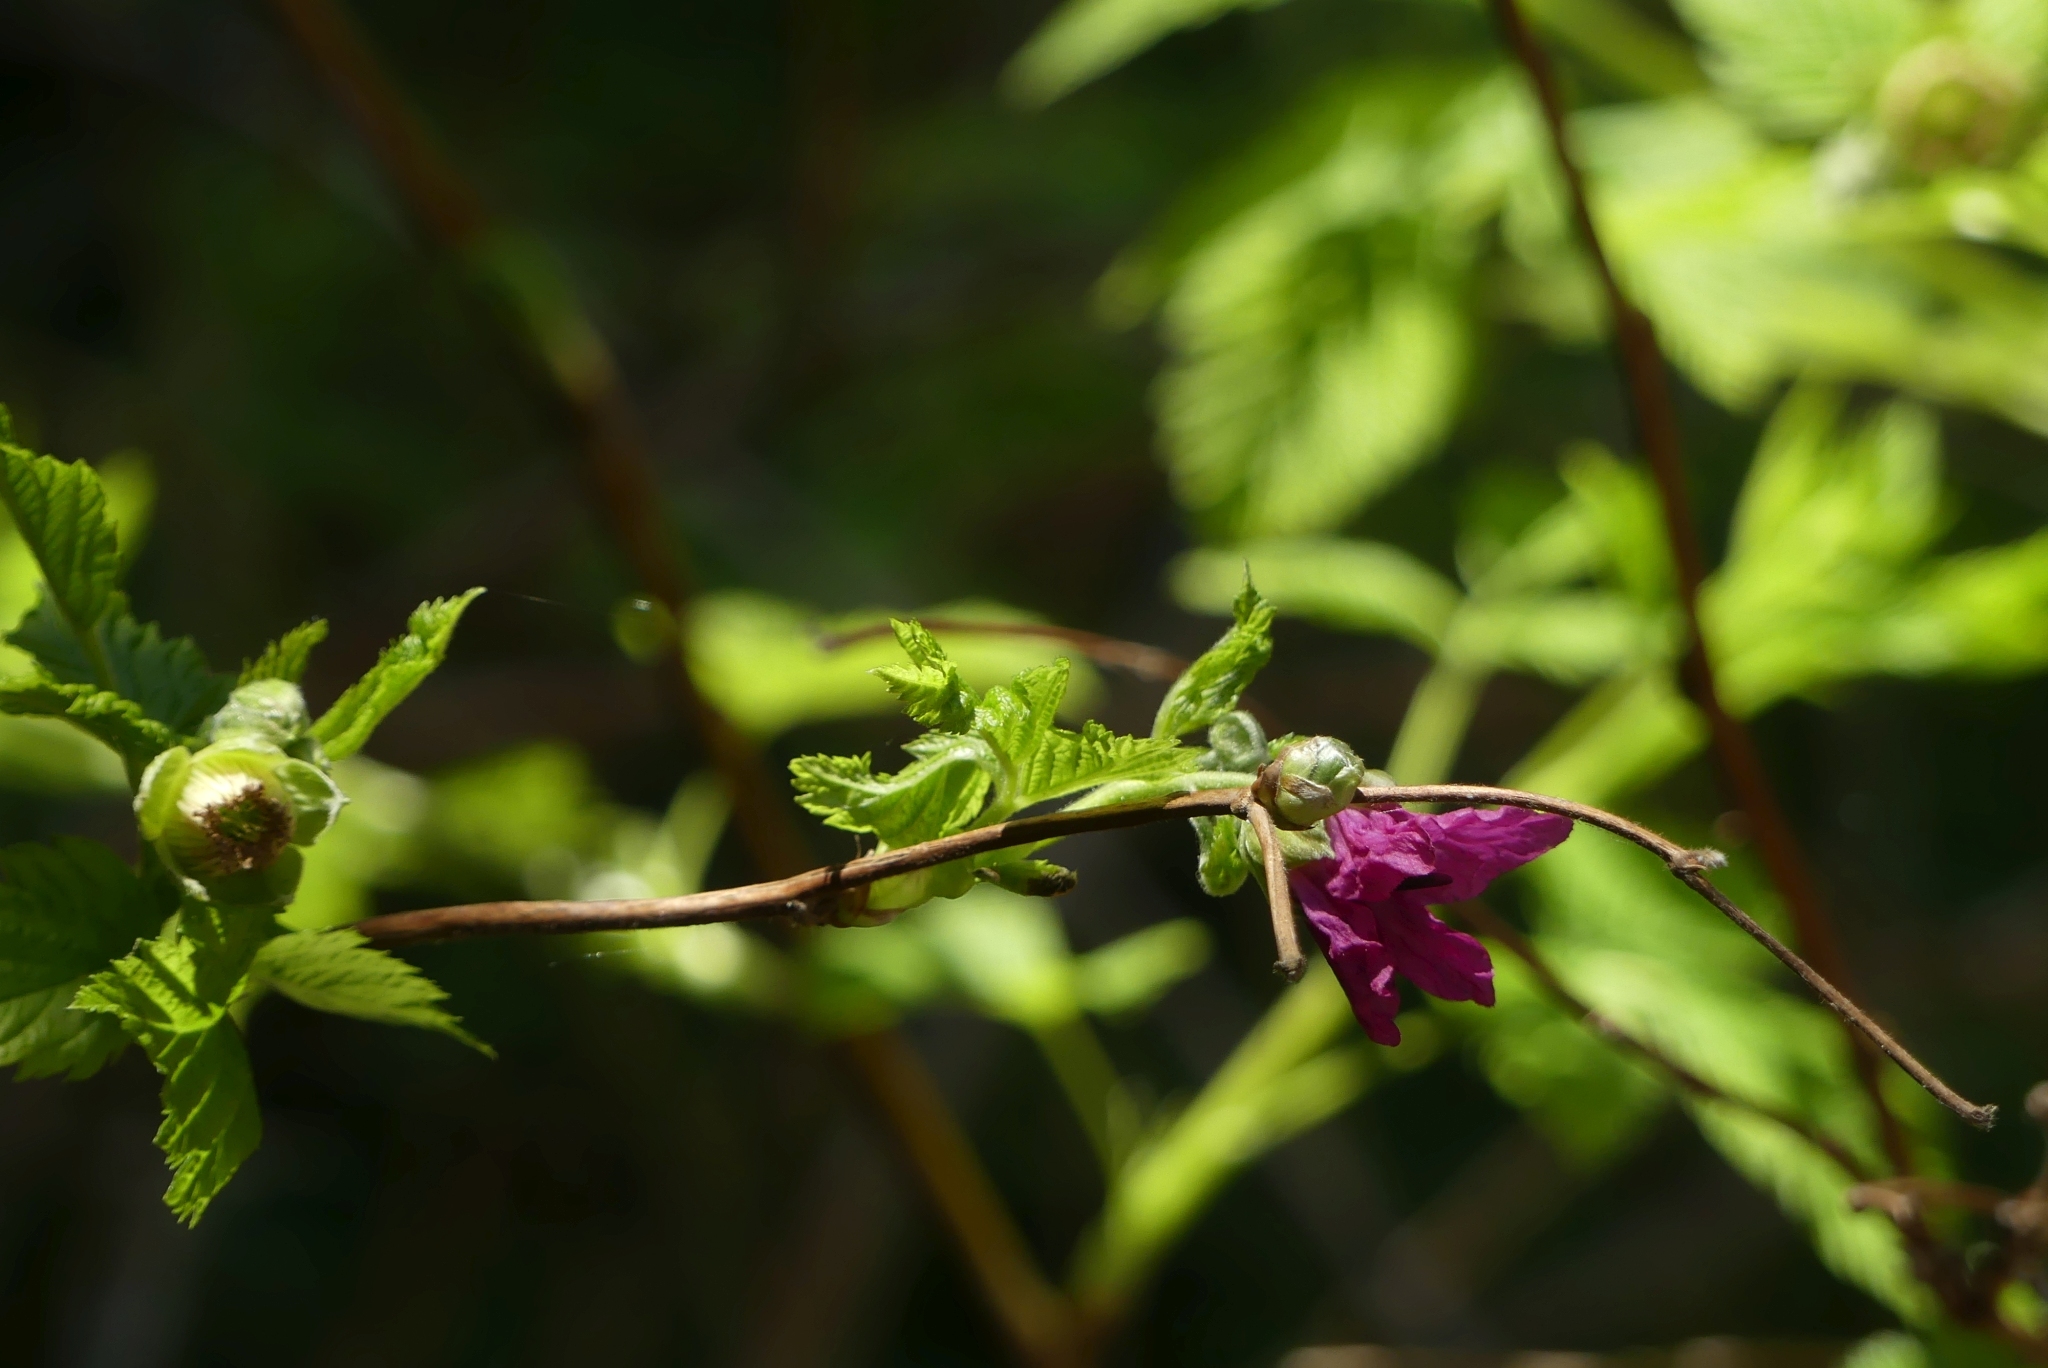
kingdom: Plantae
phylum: Tracheophyta
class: Magnoliopsida
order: Rosales
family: Rosaceae
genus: Rubus
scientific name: Rubus spectabilis
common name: Salmonberry
